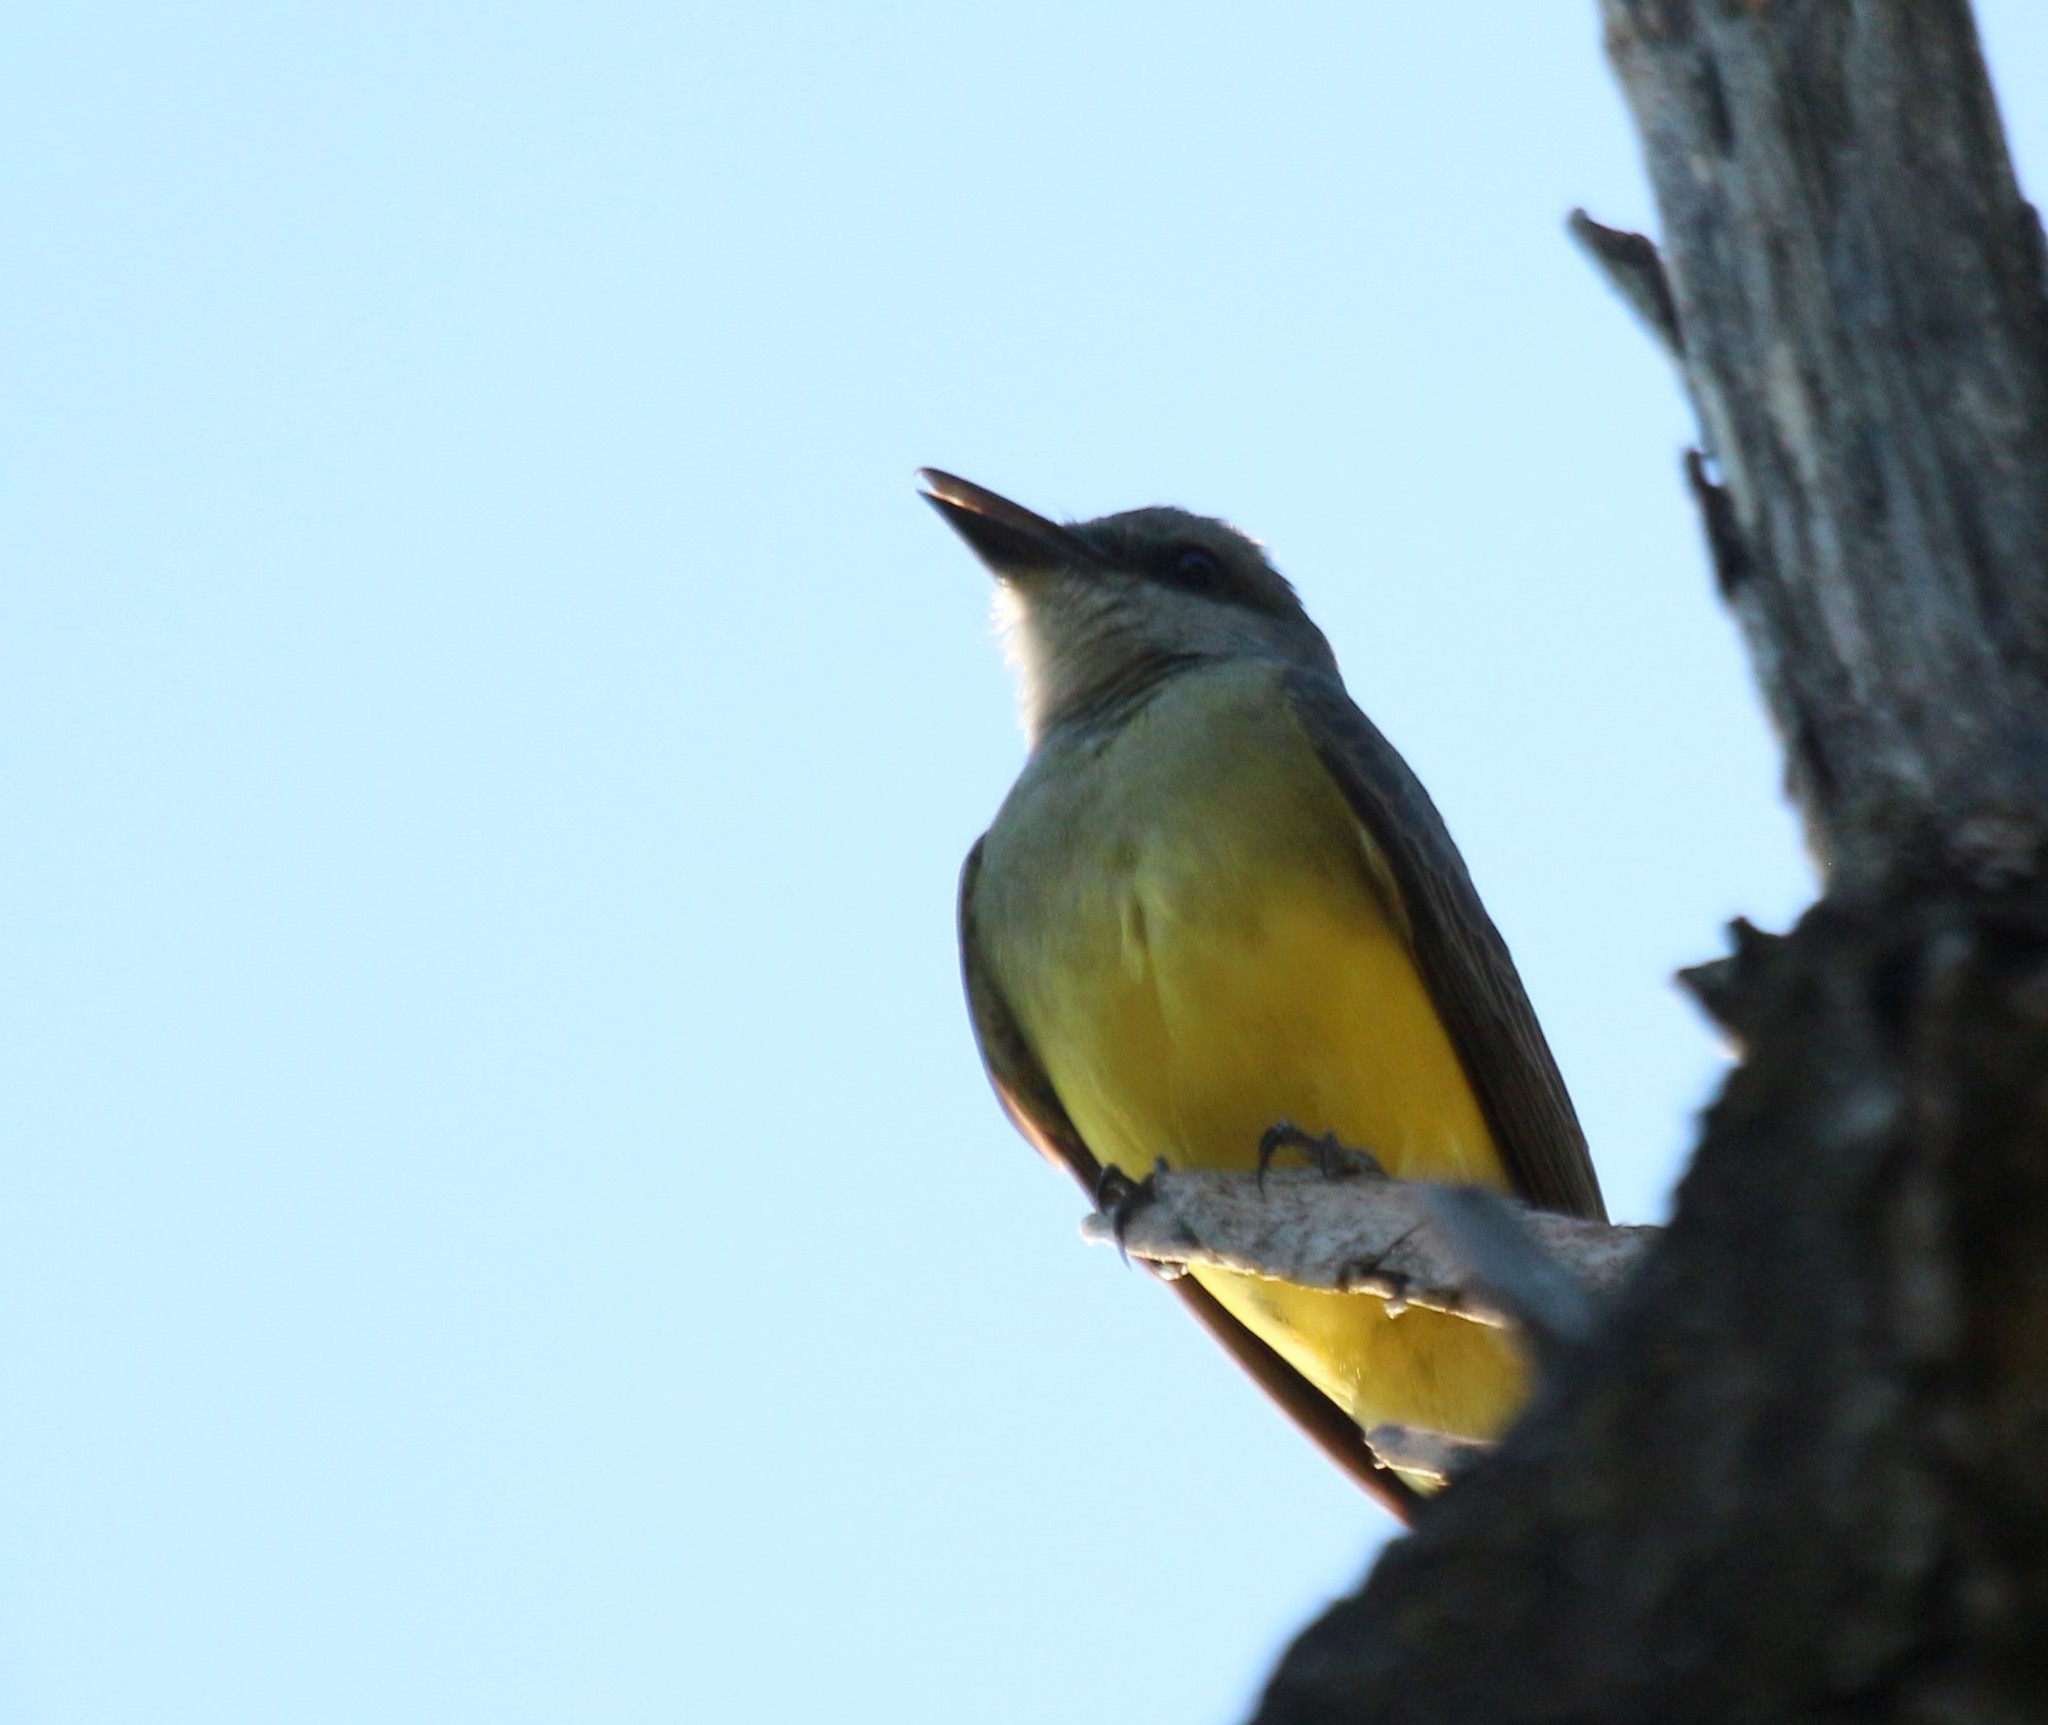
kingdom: Animalia
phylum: Chordata
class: Aves
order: Passeriformes
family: Tyrannidae
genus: Tyrannus
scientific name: Tyrannus melancholicus
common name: Tropical kingbird
